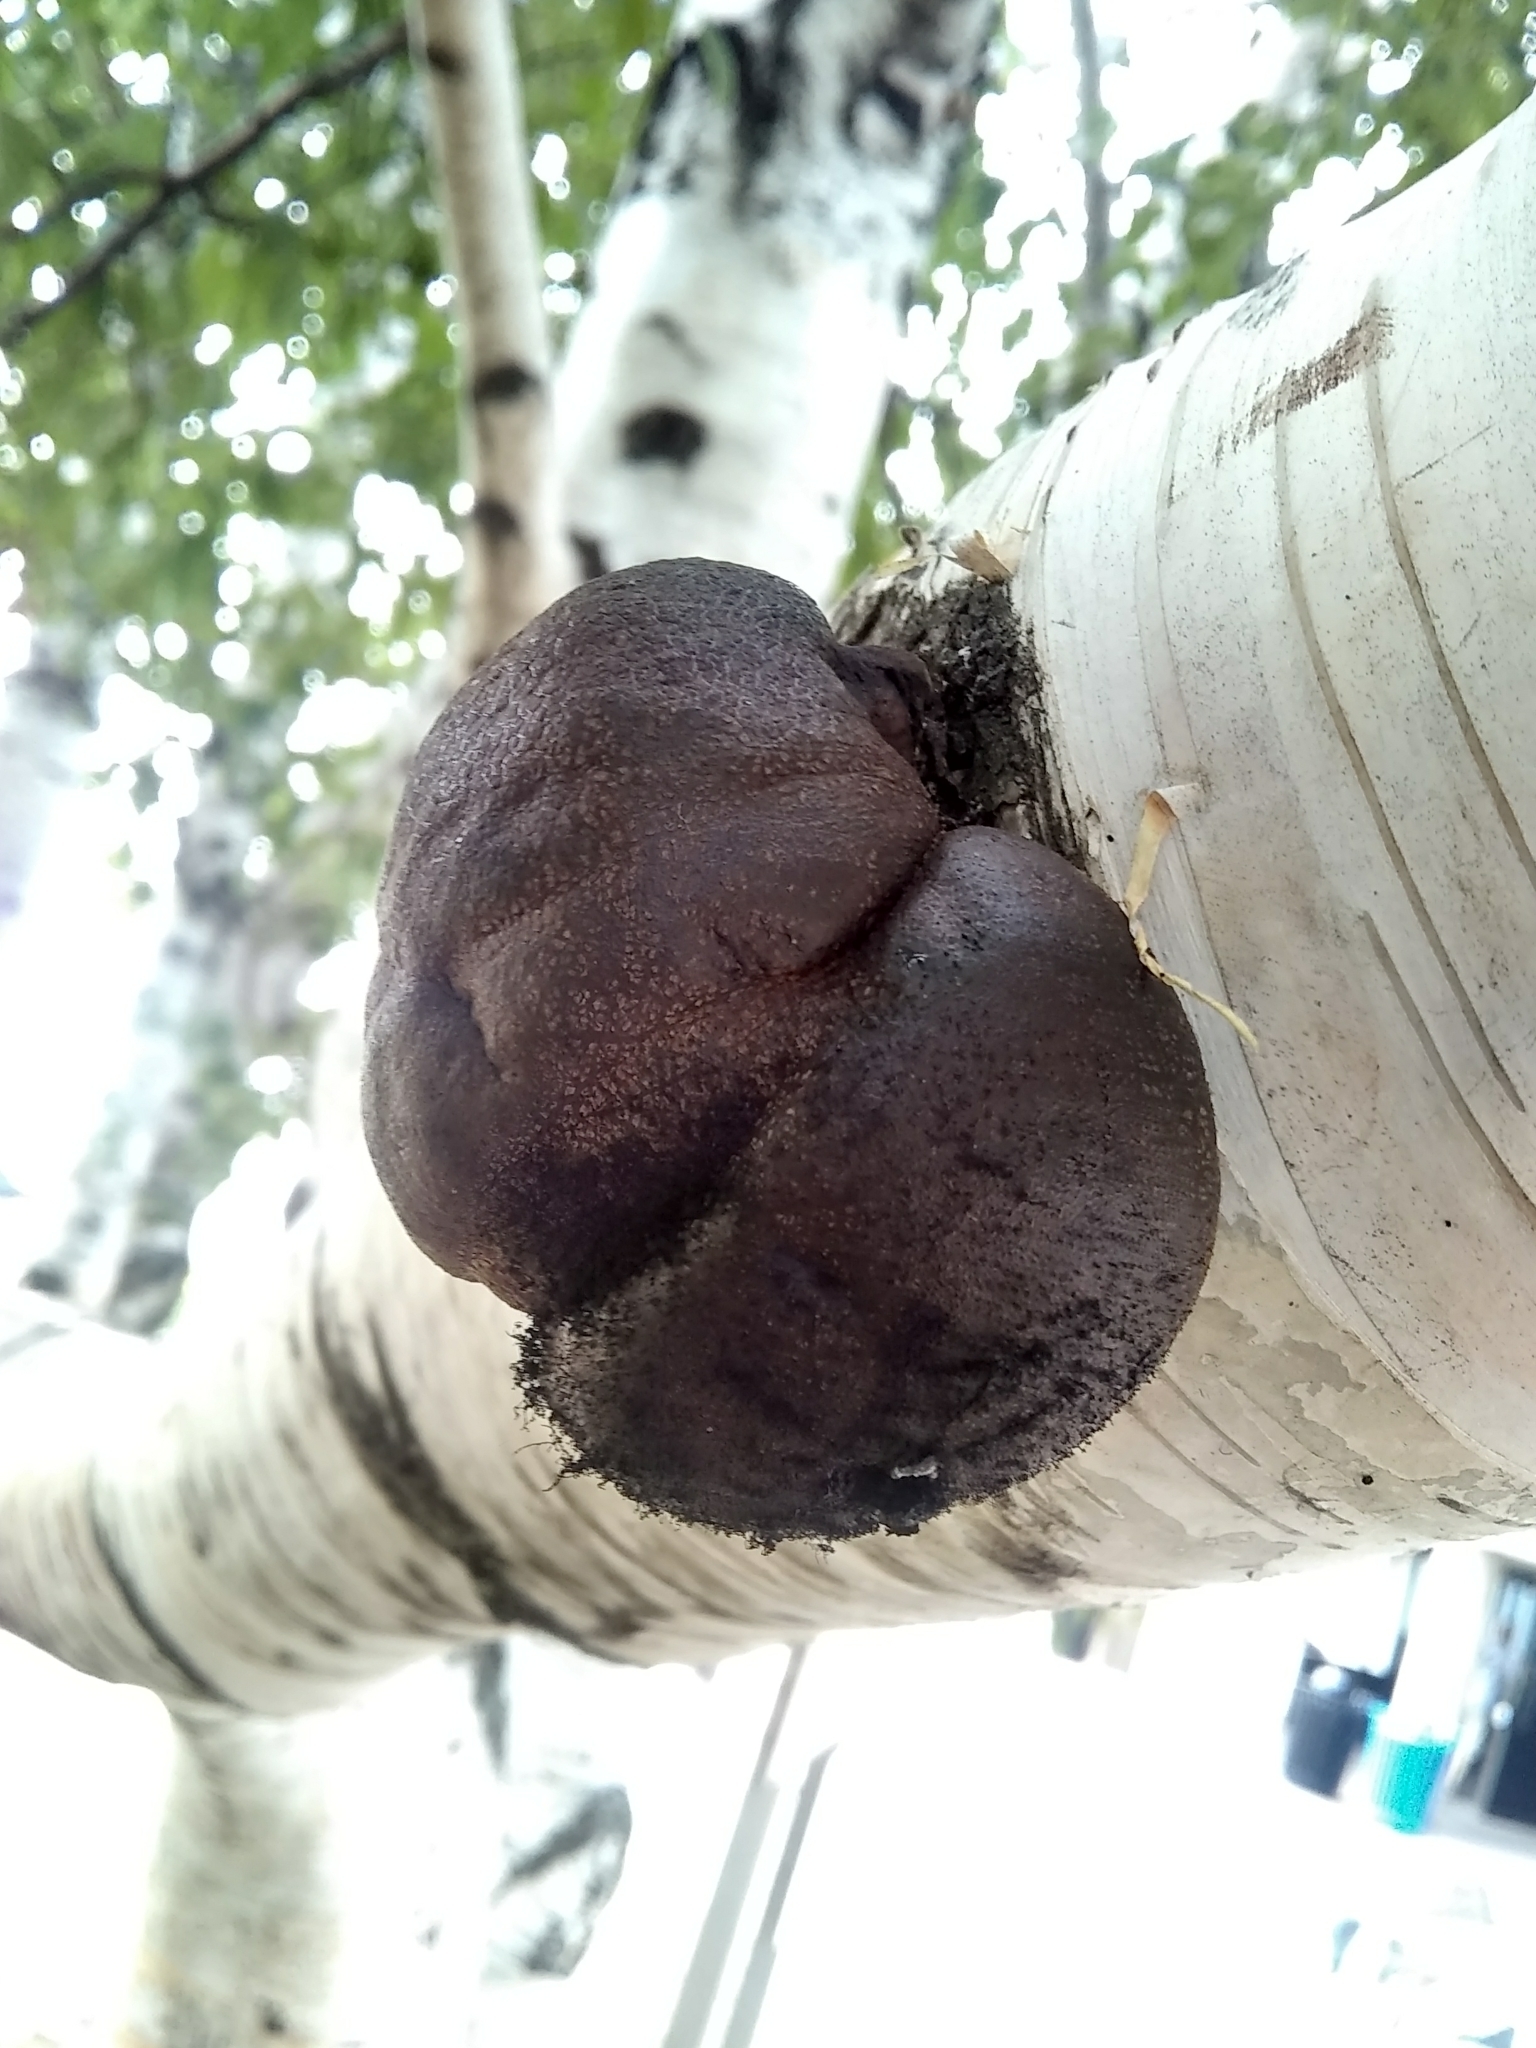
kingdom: Fungi
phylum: Ascomycota
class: Sordariomycetes
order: Xylariales
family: Hypoxylaceae
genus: Daldinia
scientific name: Daldinia childiae
